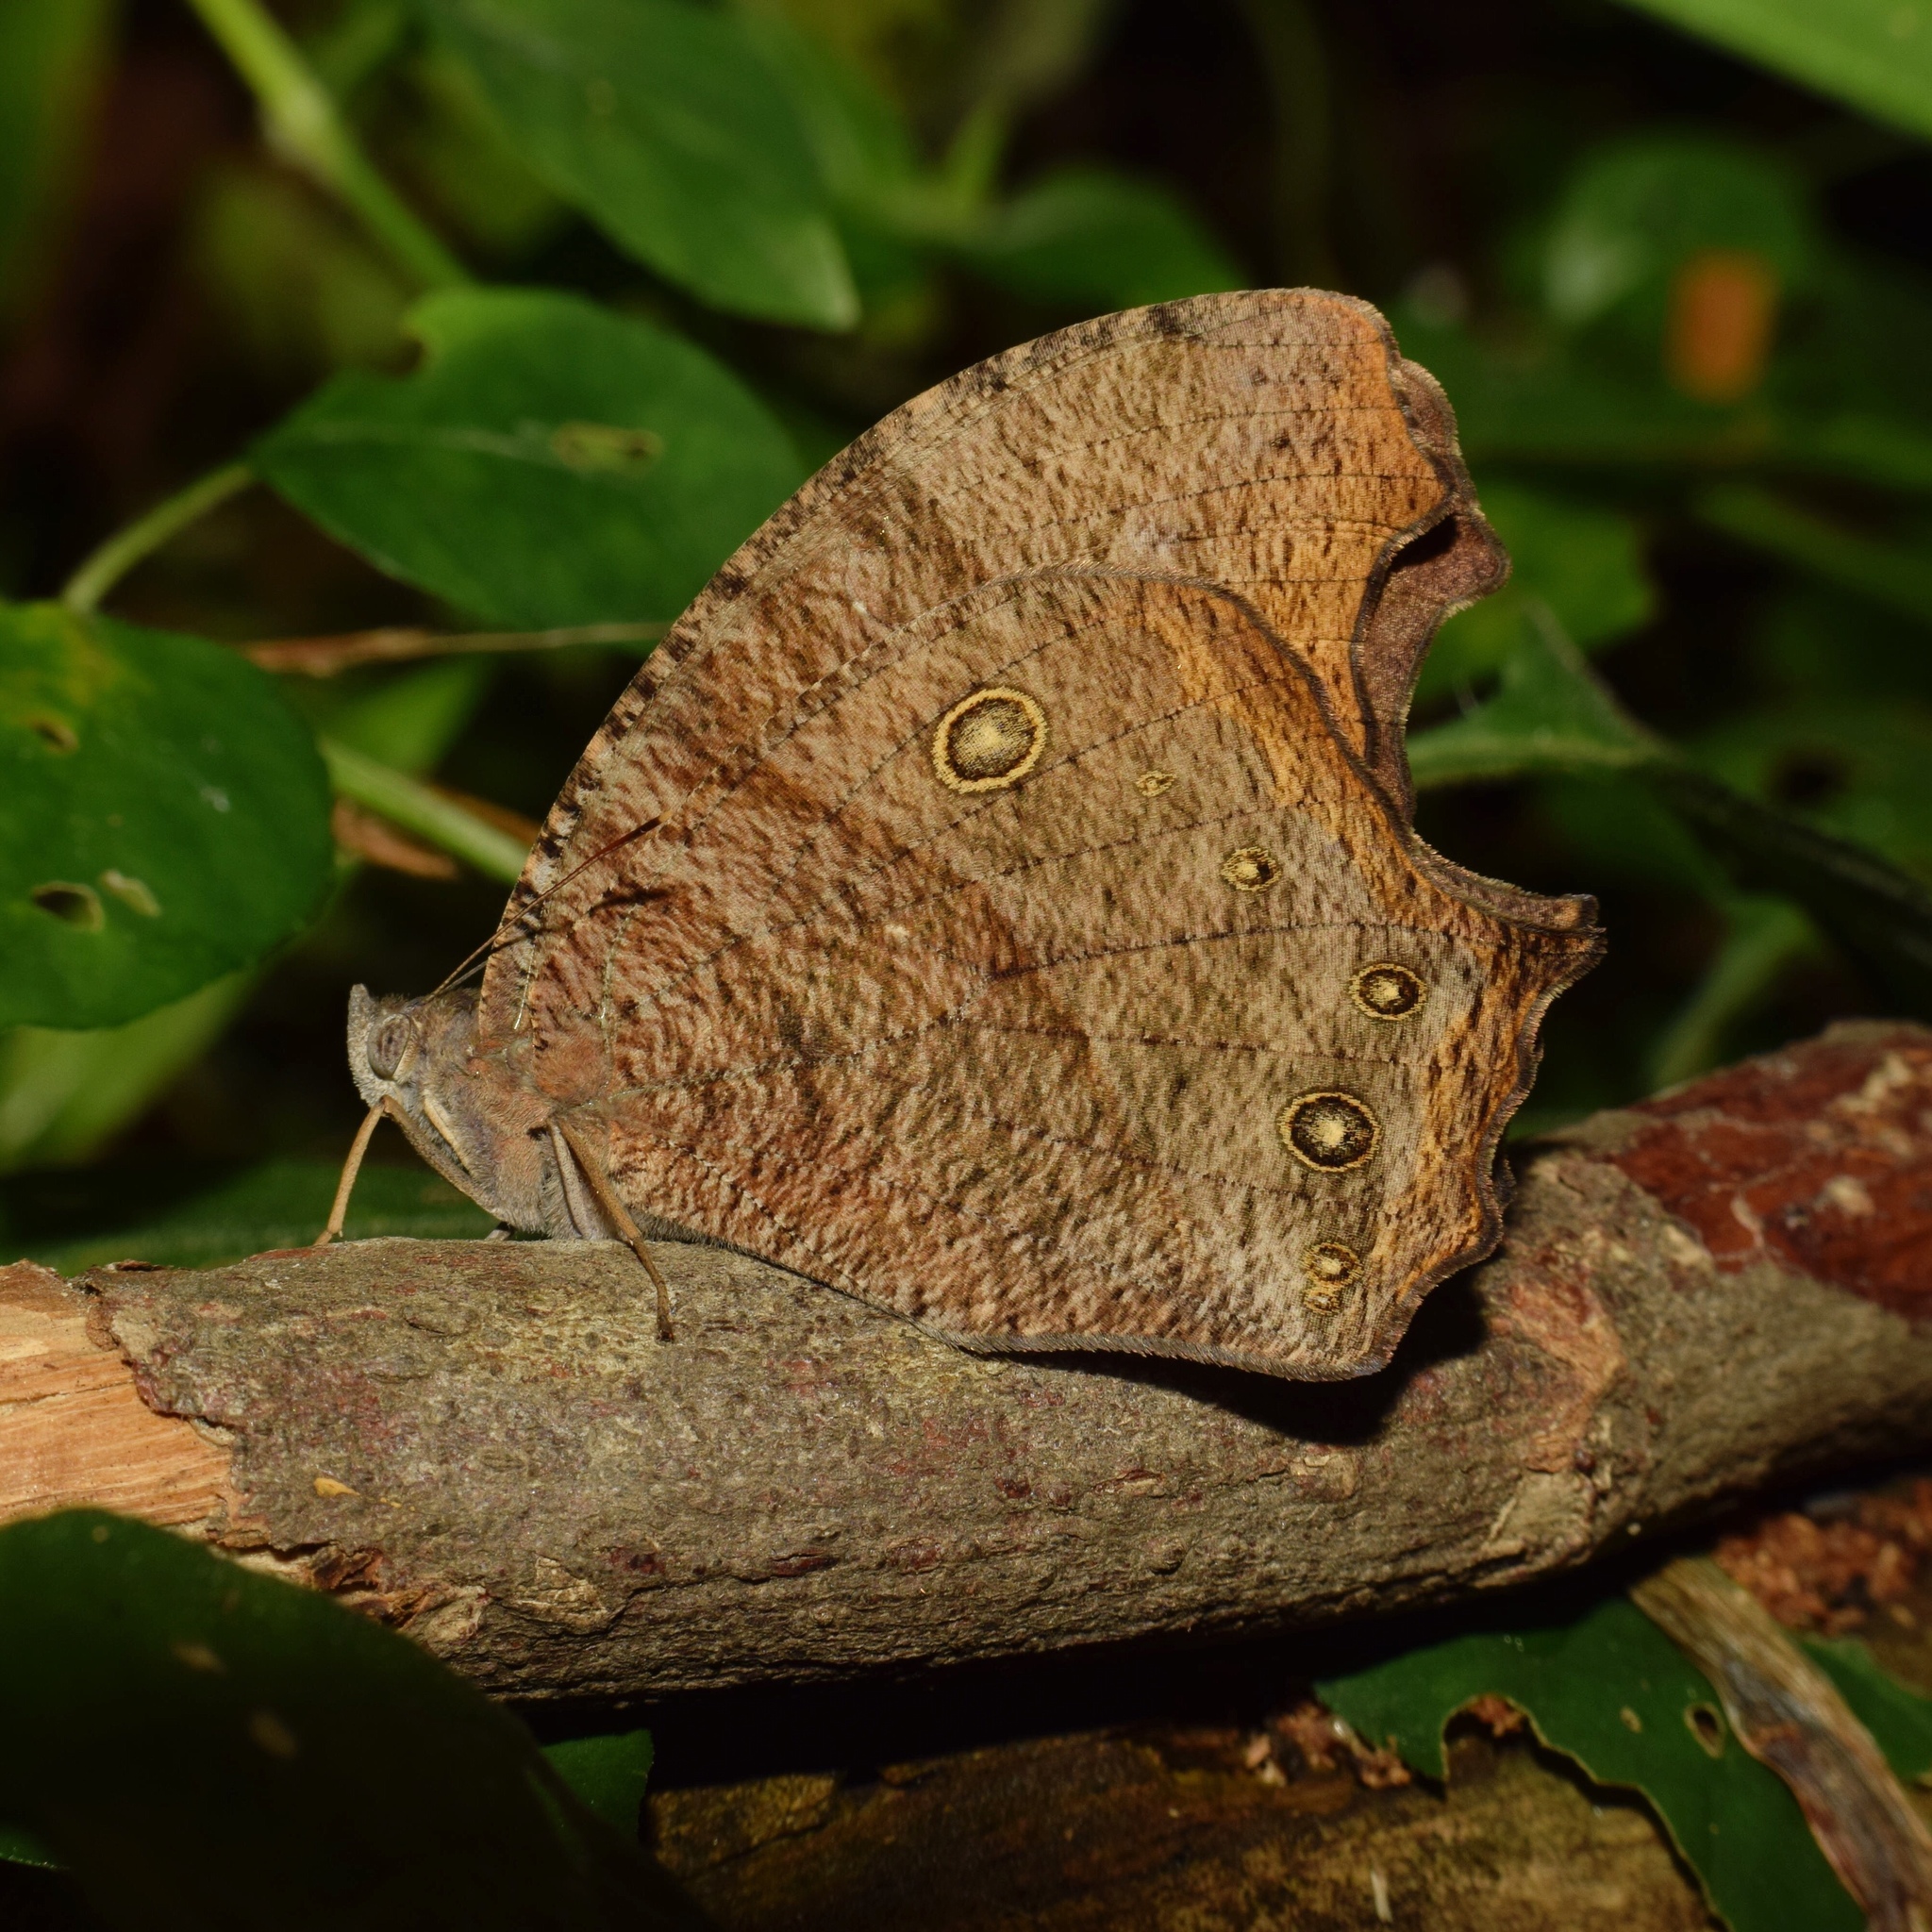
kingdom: Animalia
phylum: Arthropoda
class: Insecta
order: Lepidoptera
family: Nymphalidae
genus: Melanitis
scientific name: Melanitis leda
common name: Twilight brown
